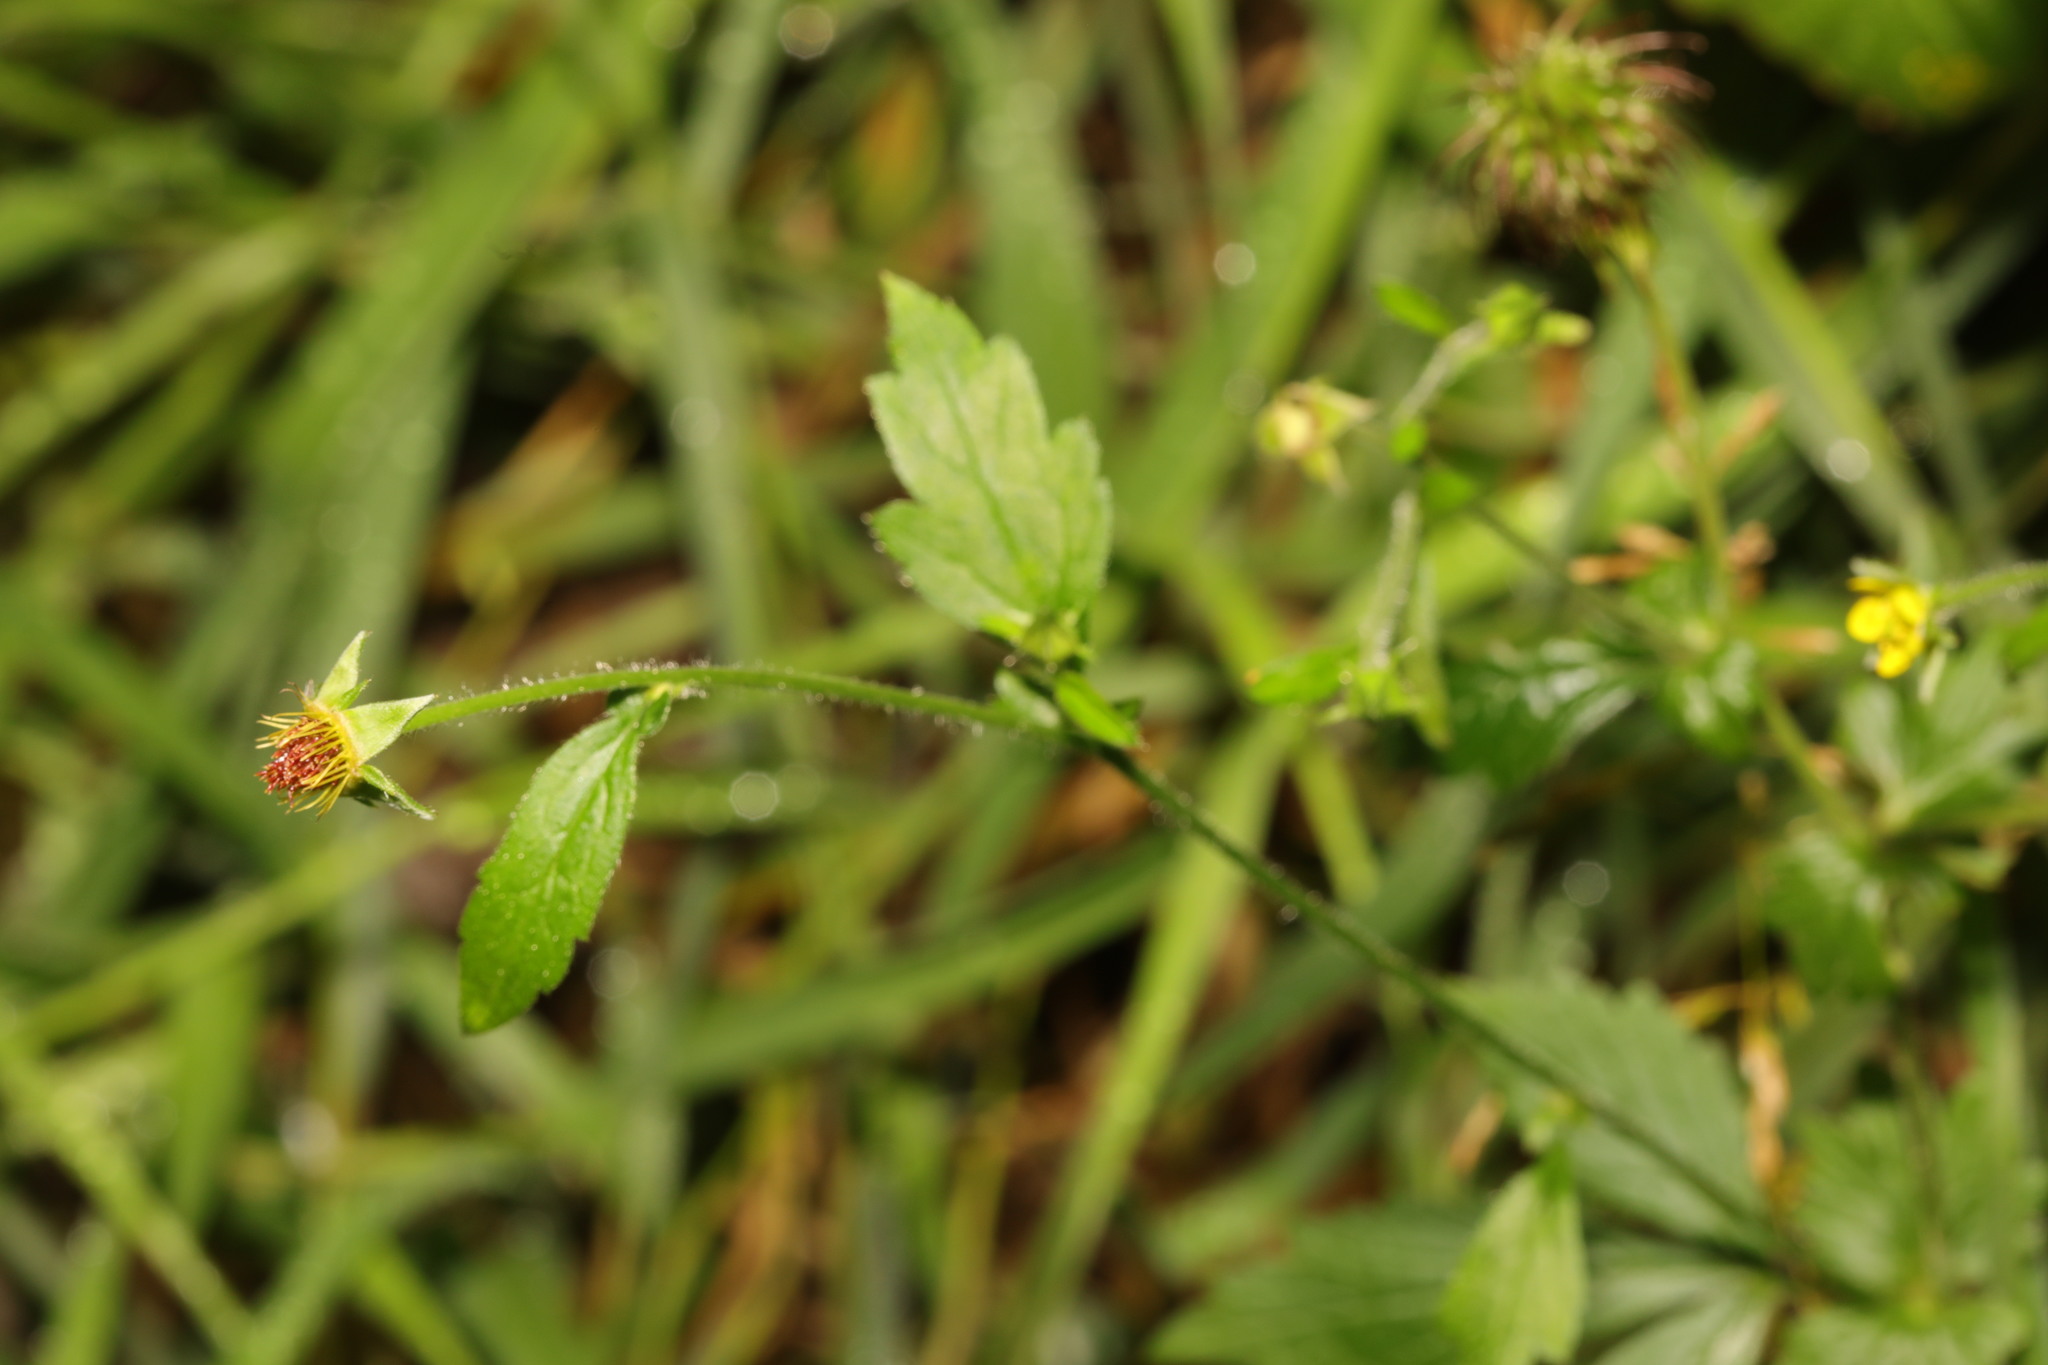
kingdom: Plantae
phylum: Tracheophyta
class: Magnoliopsida
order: Rosales
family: Rosaceae
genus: Geum
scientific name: Geum urbanum
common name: Wood avens
